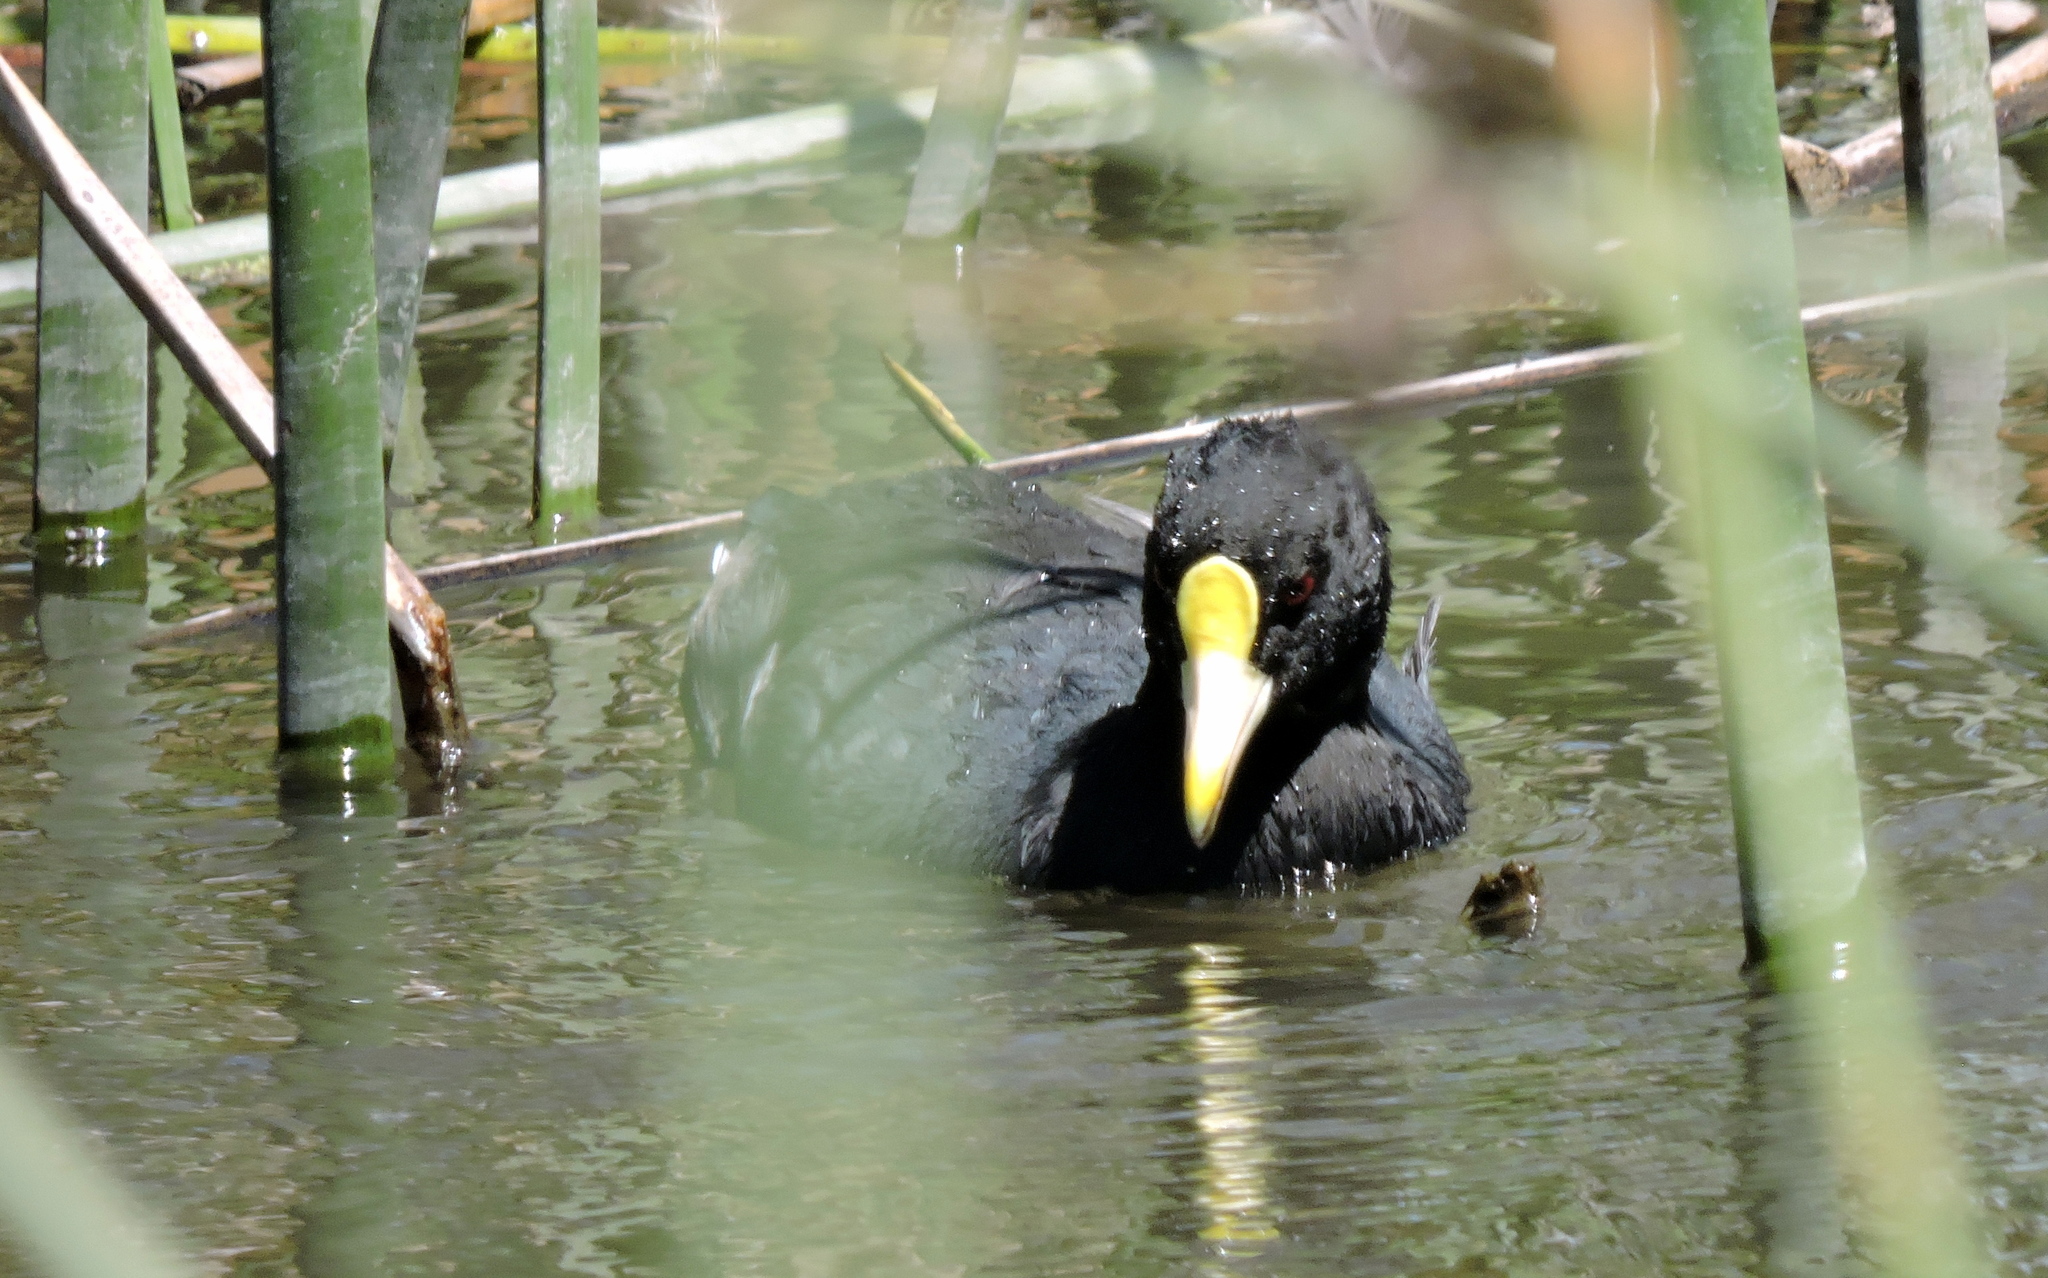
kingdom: Animalia
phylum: Chordata
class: Aves
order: Gruiformes
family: Rallidae
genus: Fulica
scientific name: Fulica leucoptera
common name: White-winged coot
